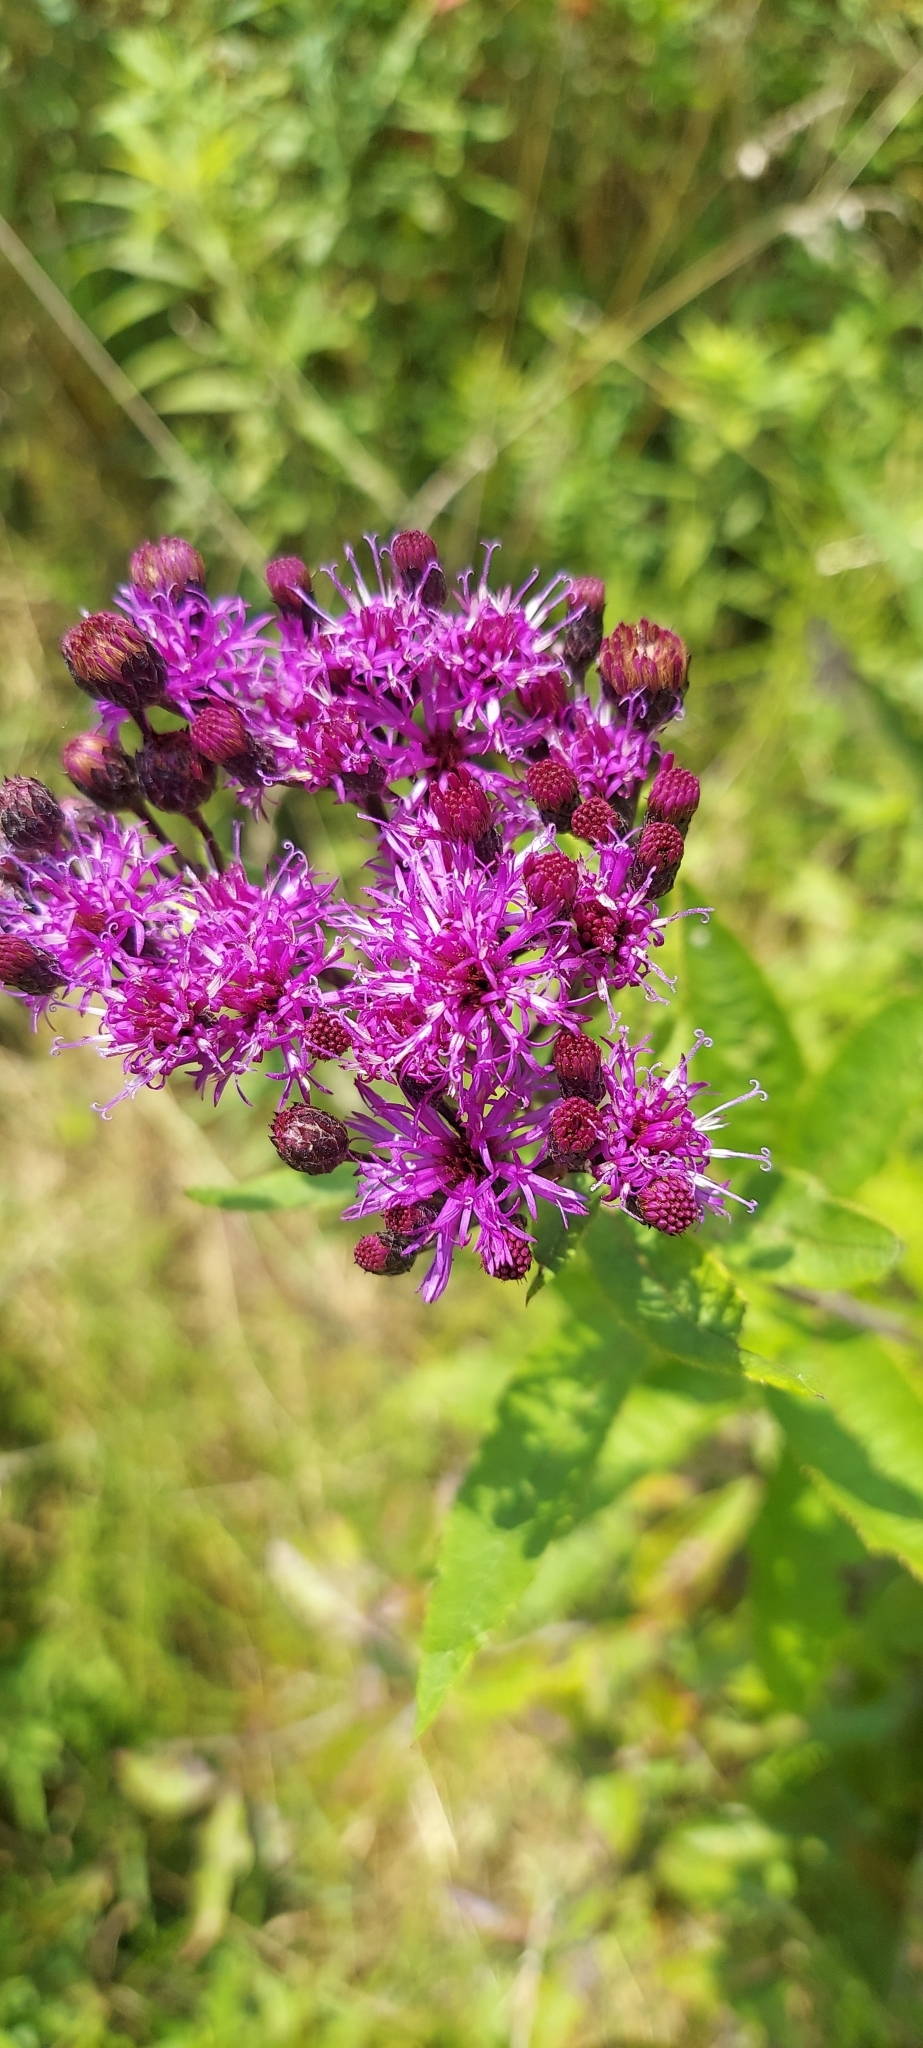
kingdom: Plantae
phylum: Tracheophyta
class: Magnoliopsida
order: Asterales
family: Asteraceae
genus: Vernonia
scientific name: Vernonia gigantea
